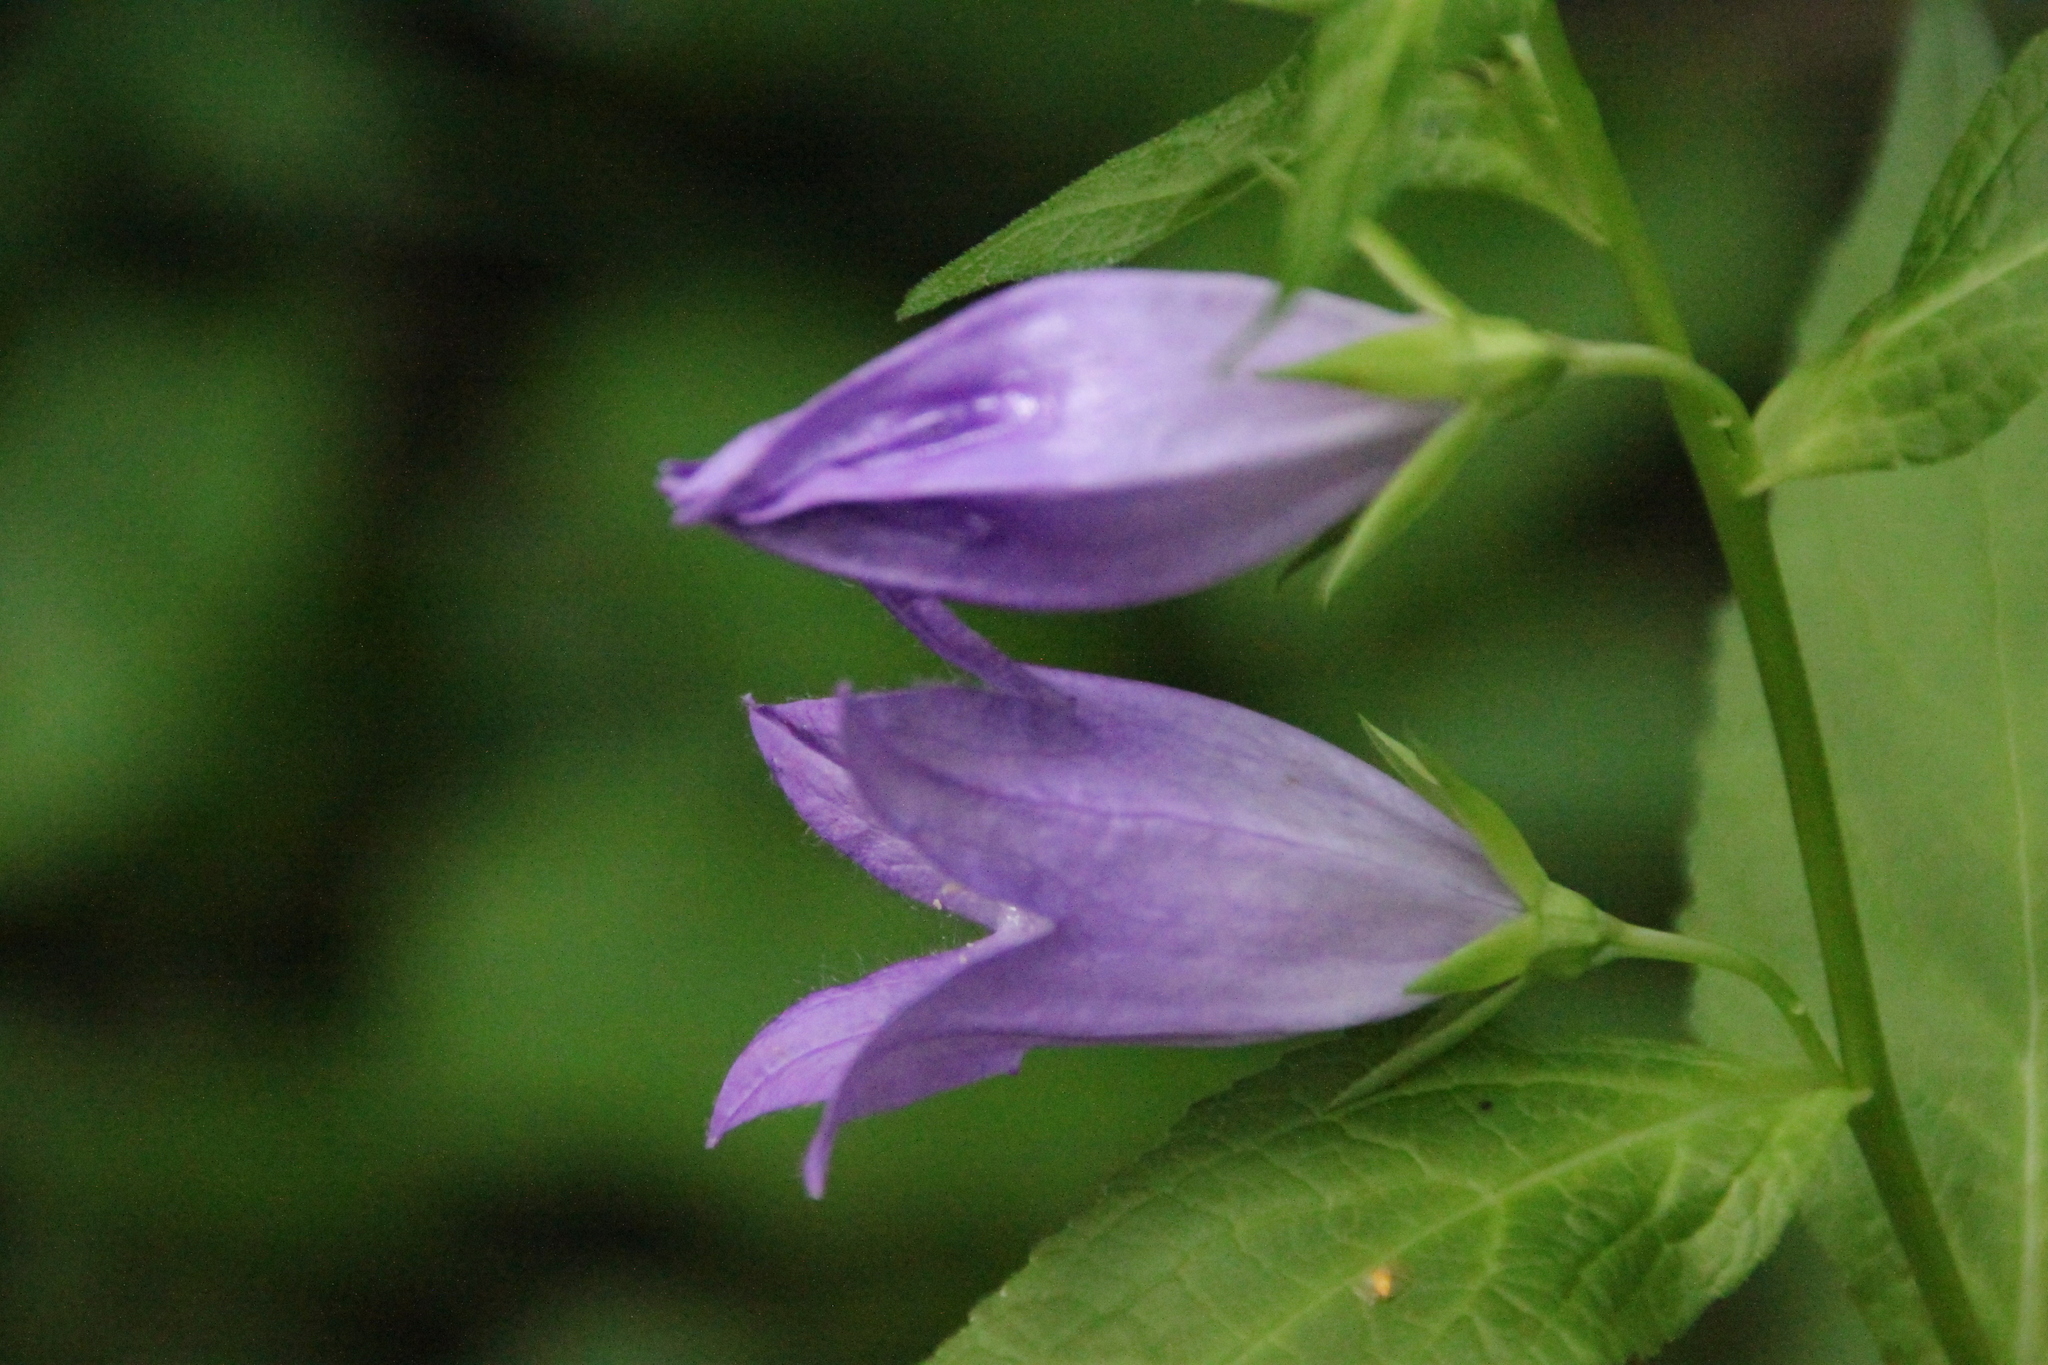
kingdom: Plantae
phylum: Tracheophyta
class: Magnoliopsida
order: Asterales
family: Campanulaceae
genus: Campanula
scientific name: Campanula latifolia
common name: Giant bellflower
